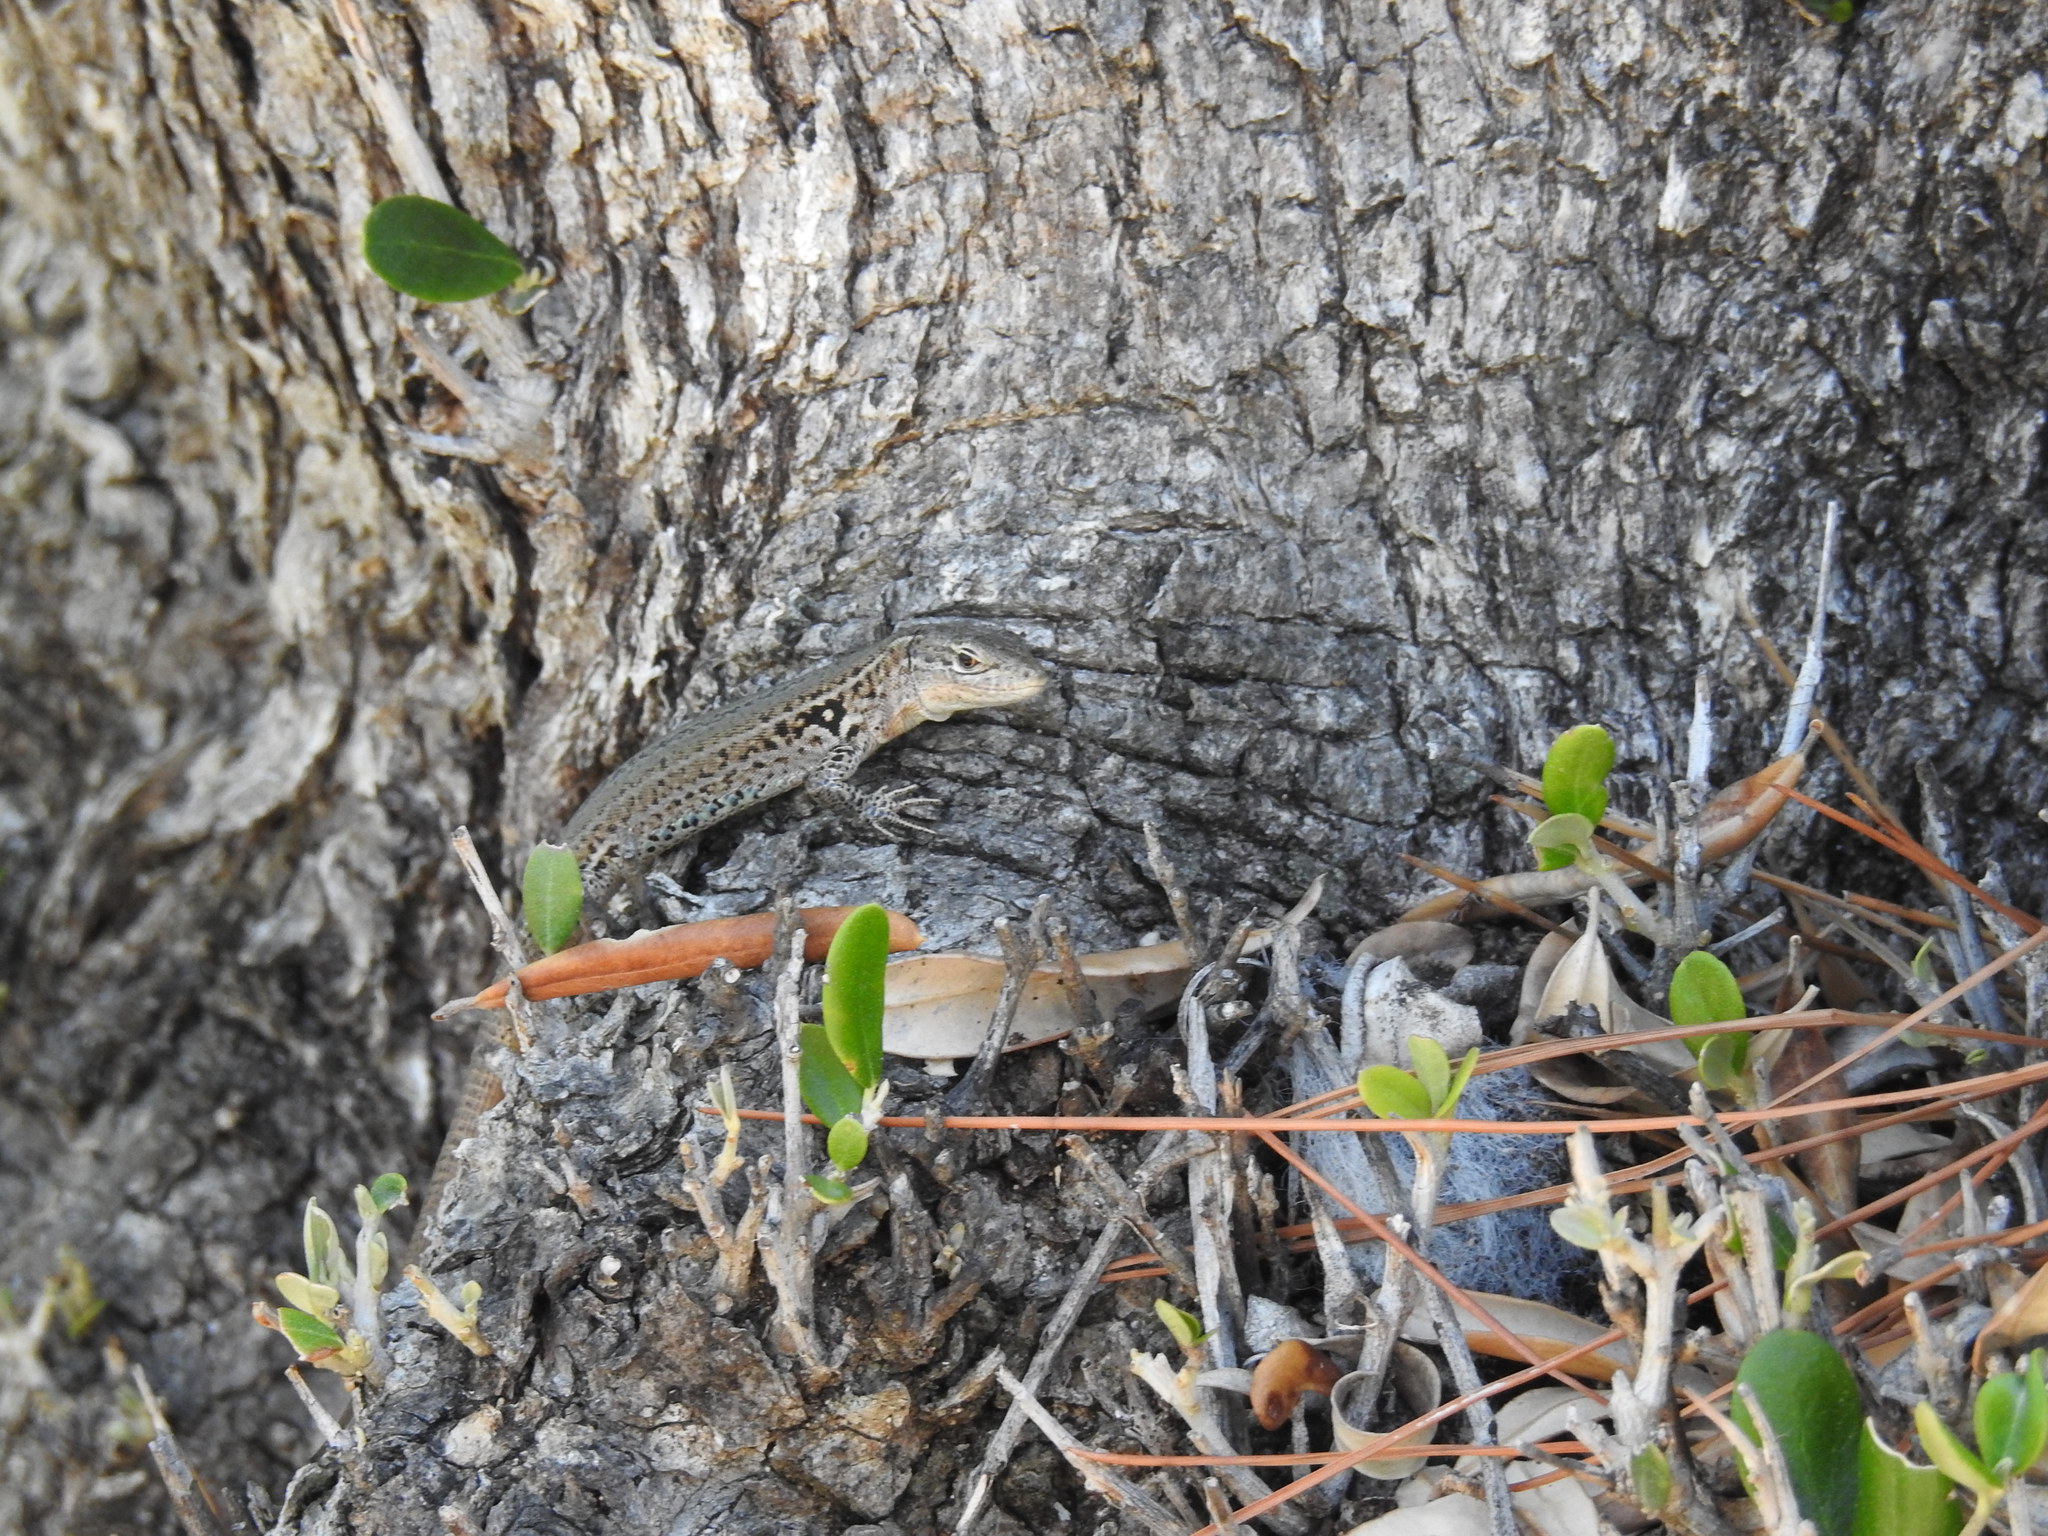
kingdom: Animalia
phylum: Chordata
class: Squamata
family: Lacertidae
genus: Podarcis
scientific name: Podarcis melisellensis
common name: Dalmatian wall lizard
